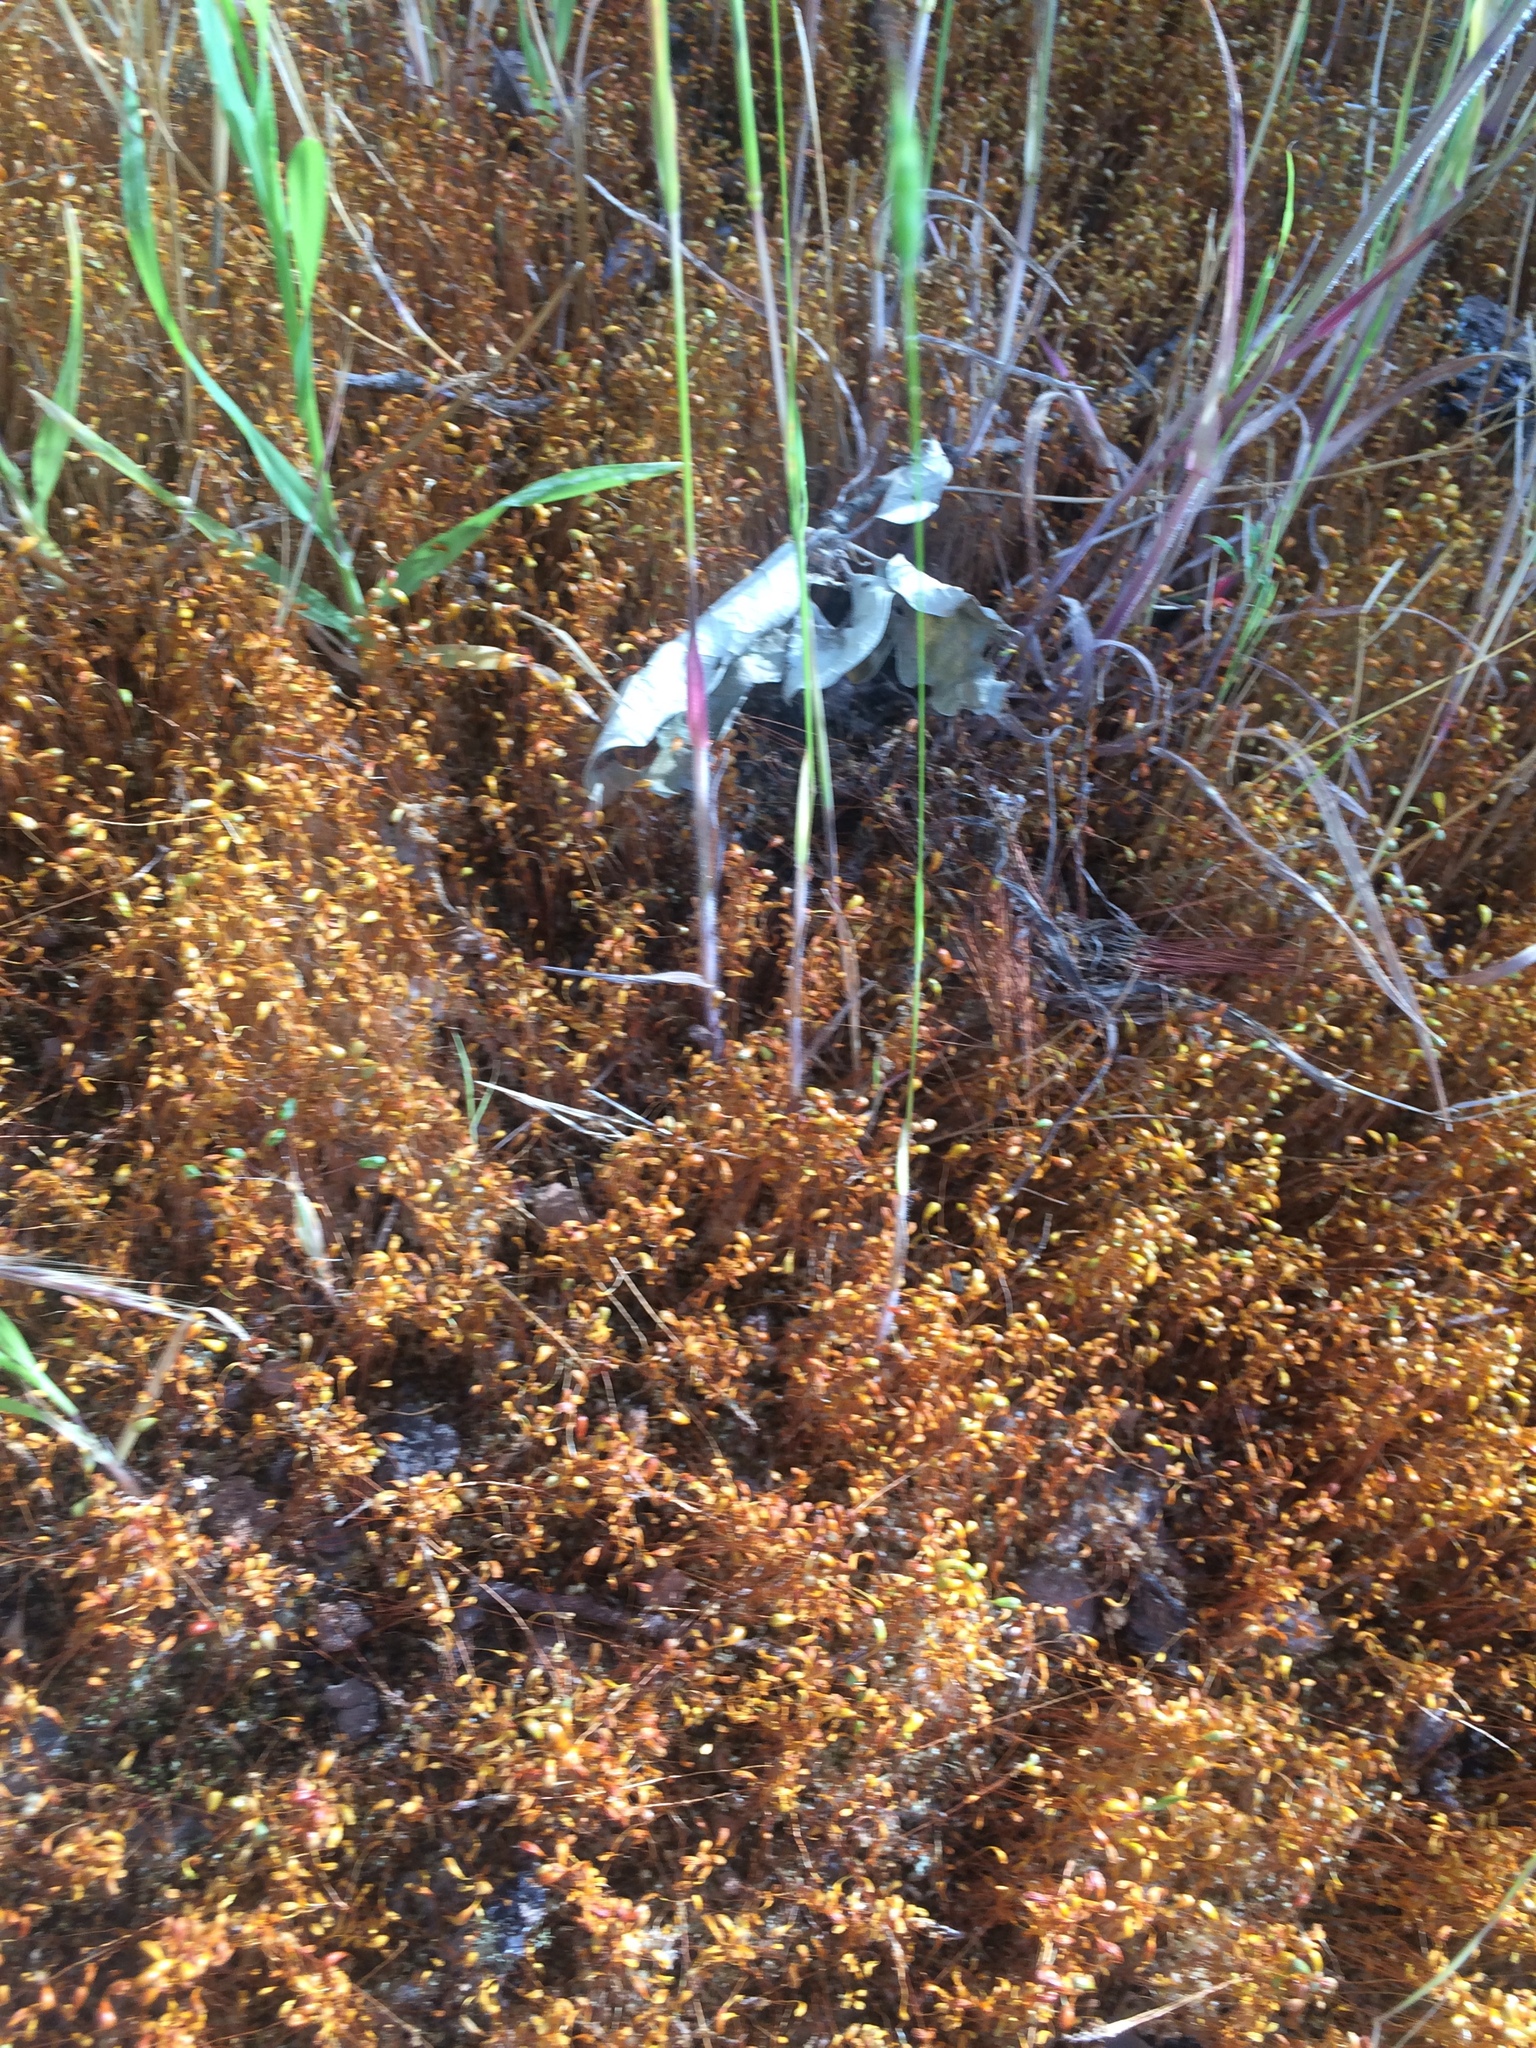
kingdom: Plantae
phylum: Bryophyta
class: Bryopsida
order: Funariales
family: Funariaceae
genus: Funaria
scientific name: Funaria hygrometrica
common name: Common cord moss
